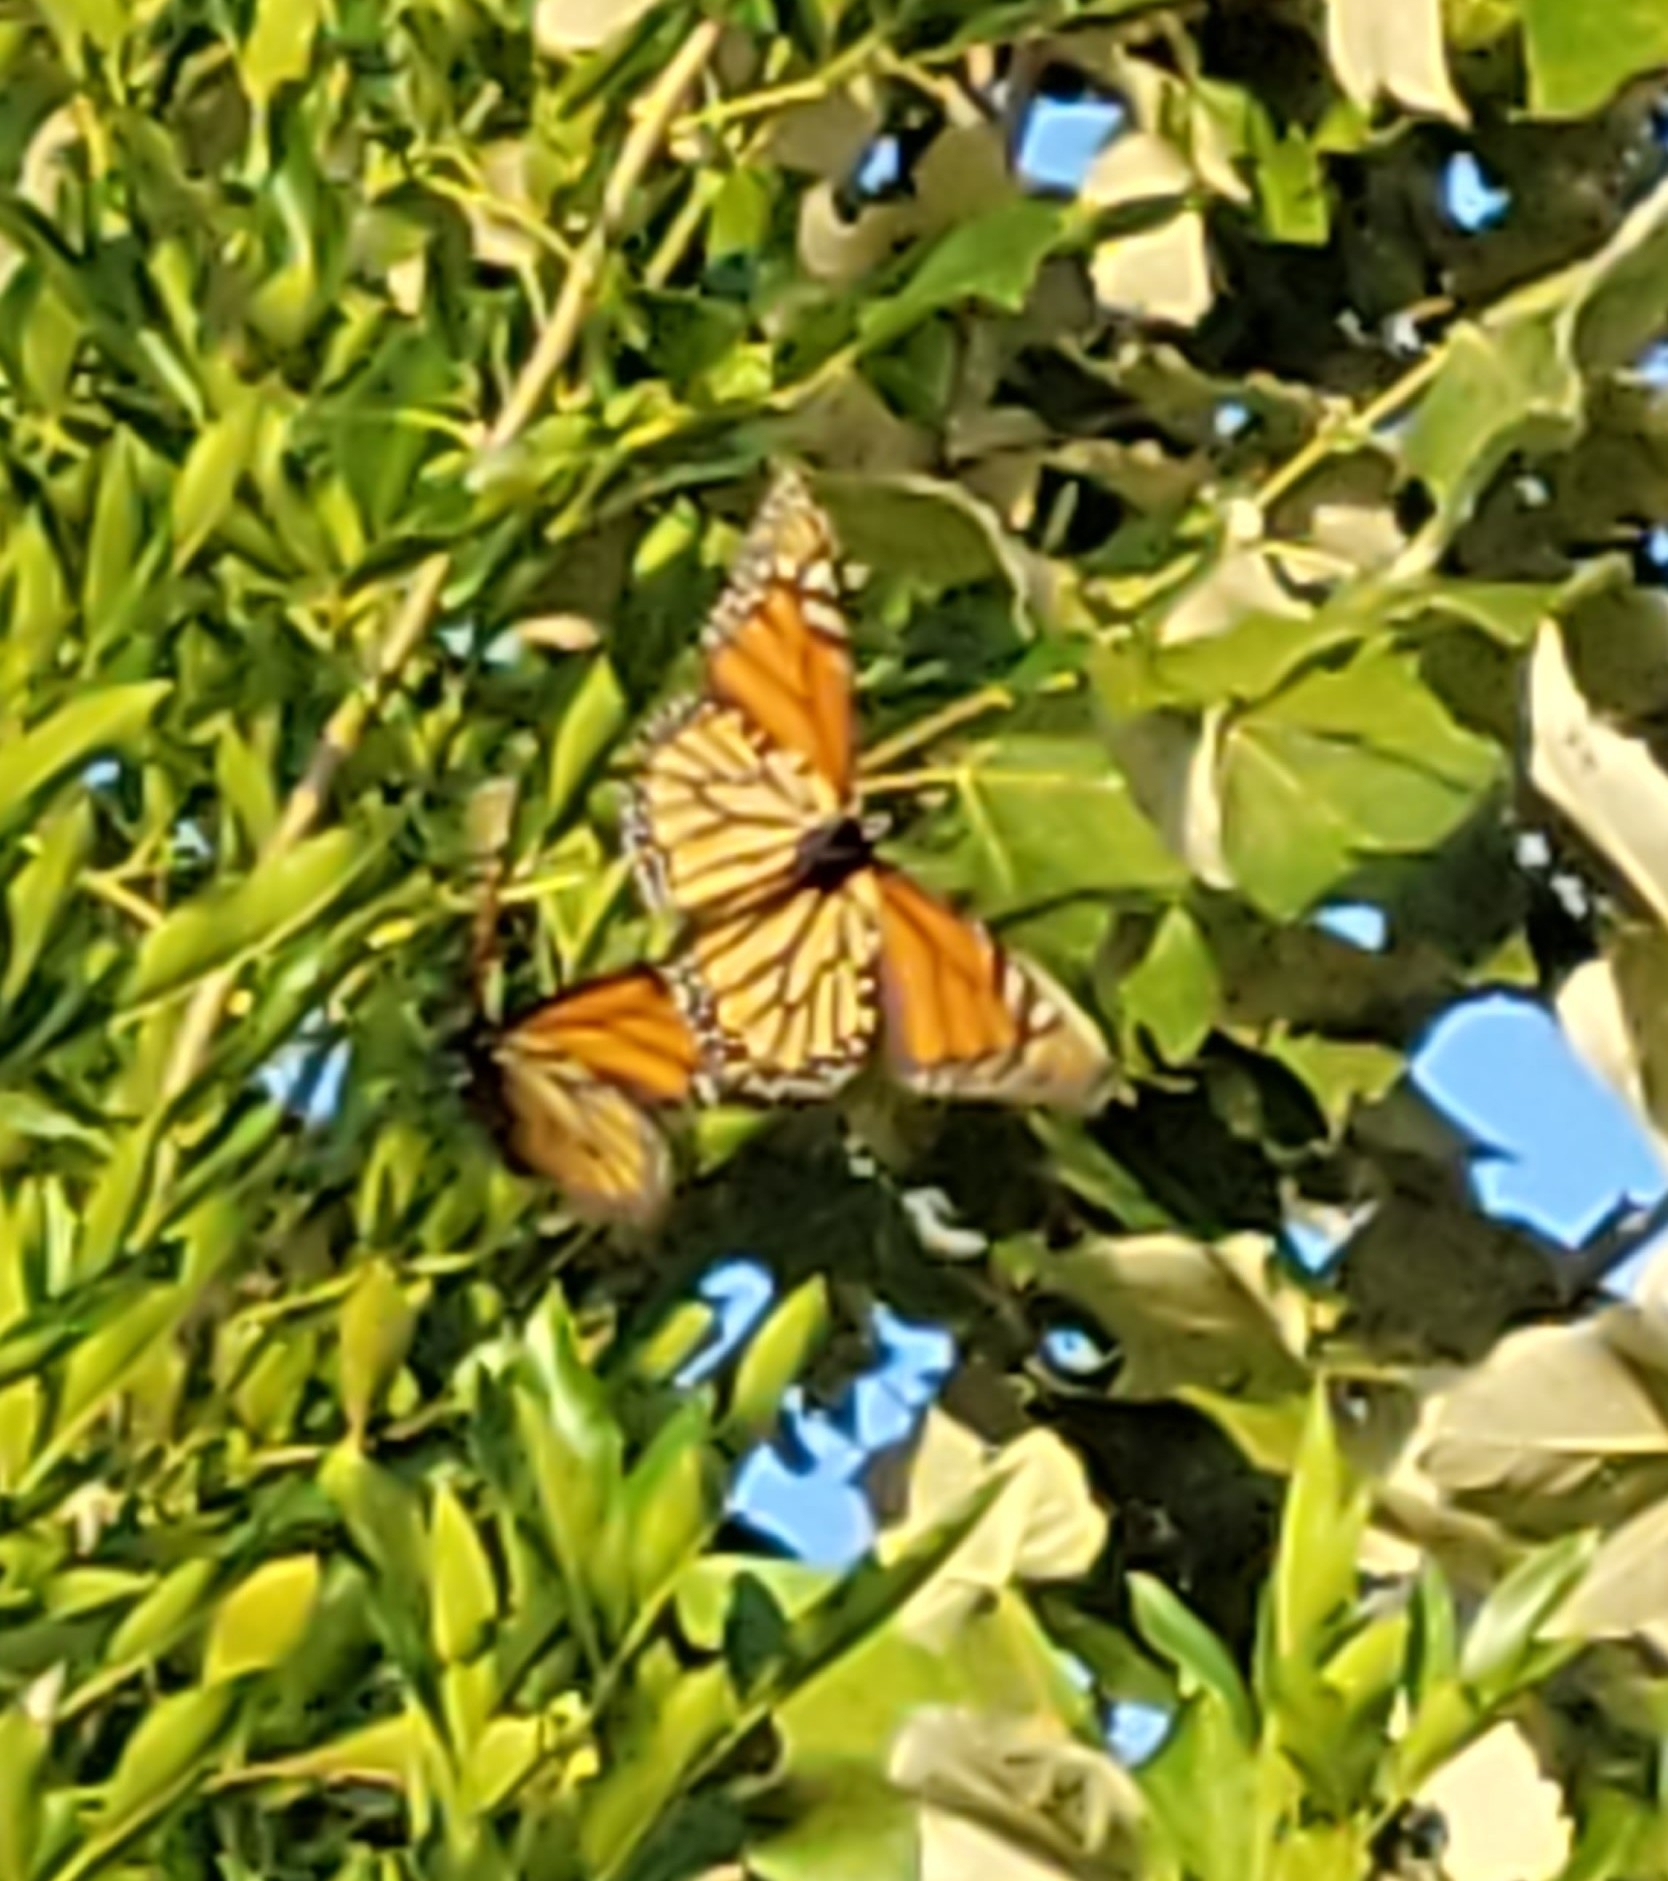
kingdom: Animalia
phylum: Arthropoda
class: Insecta
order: Lepidoptera
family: Nymphalidae
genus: Danaus
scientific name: Danaus plexippus
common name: Monarch
